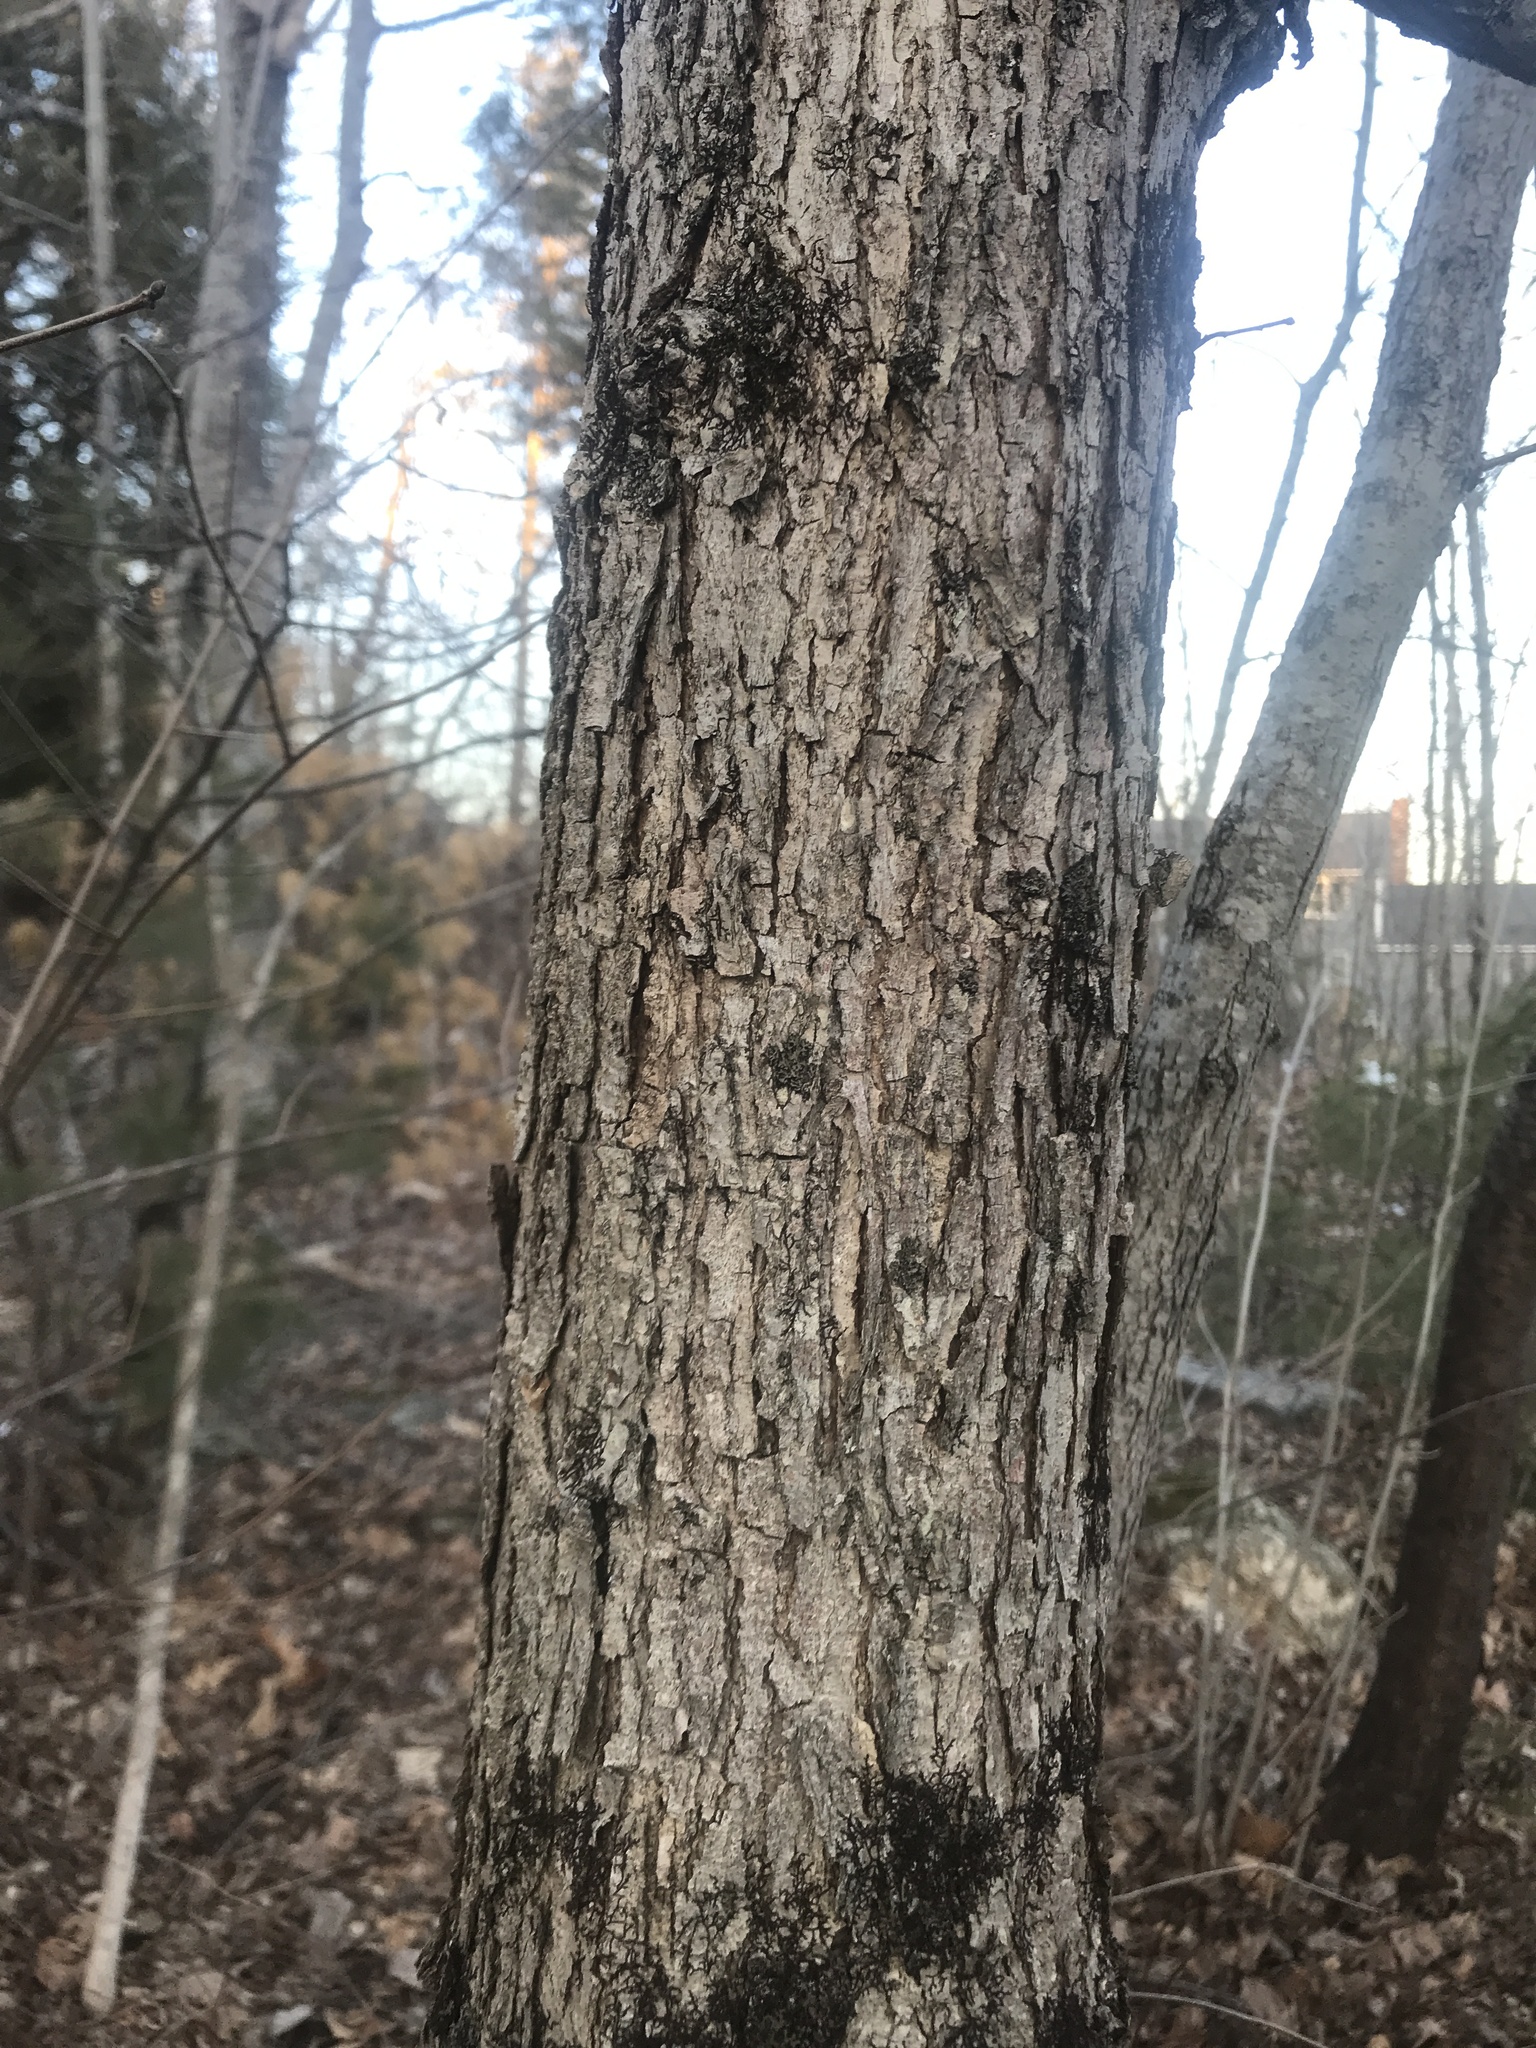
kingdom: Plantae
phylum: Tracheophyta
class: Magnoliopsida
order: Fagales
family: Fagaceae
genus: Quercus
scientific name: Quercus alba
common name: White oak
